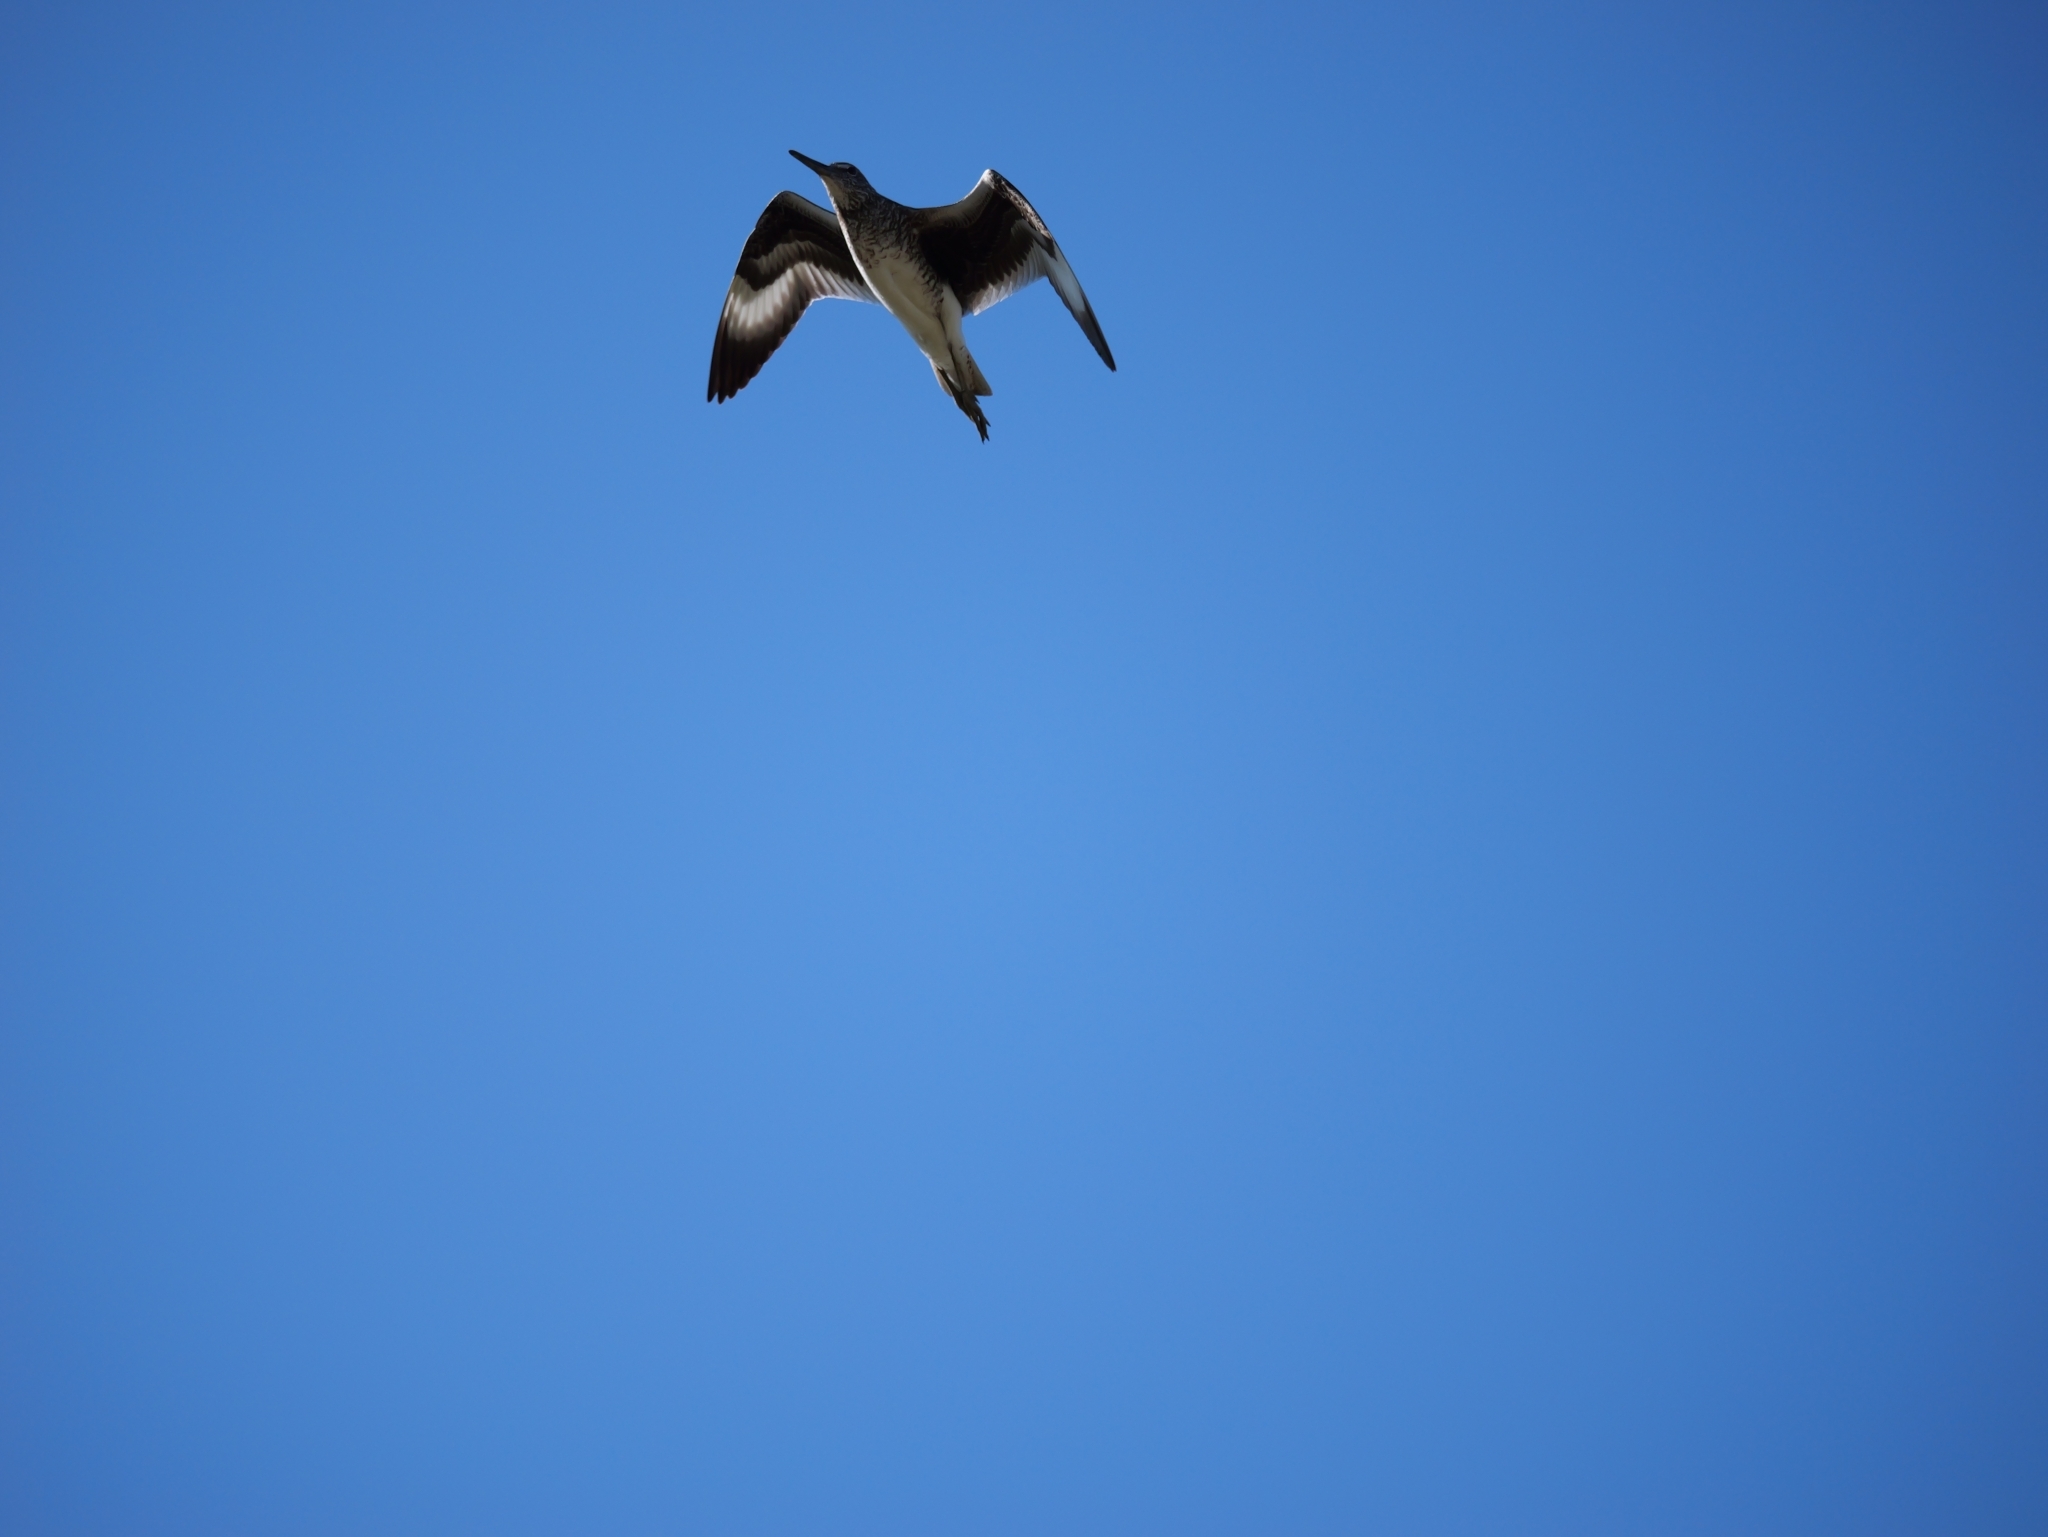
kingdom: Animalia
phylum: Chordata
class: Aves
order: Charadriiformes
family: Scolopacidae
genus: Tringa
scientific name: Tringa semipalmata
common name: Willet
